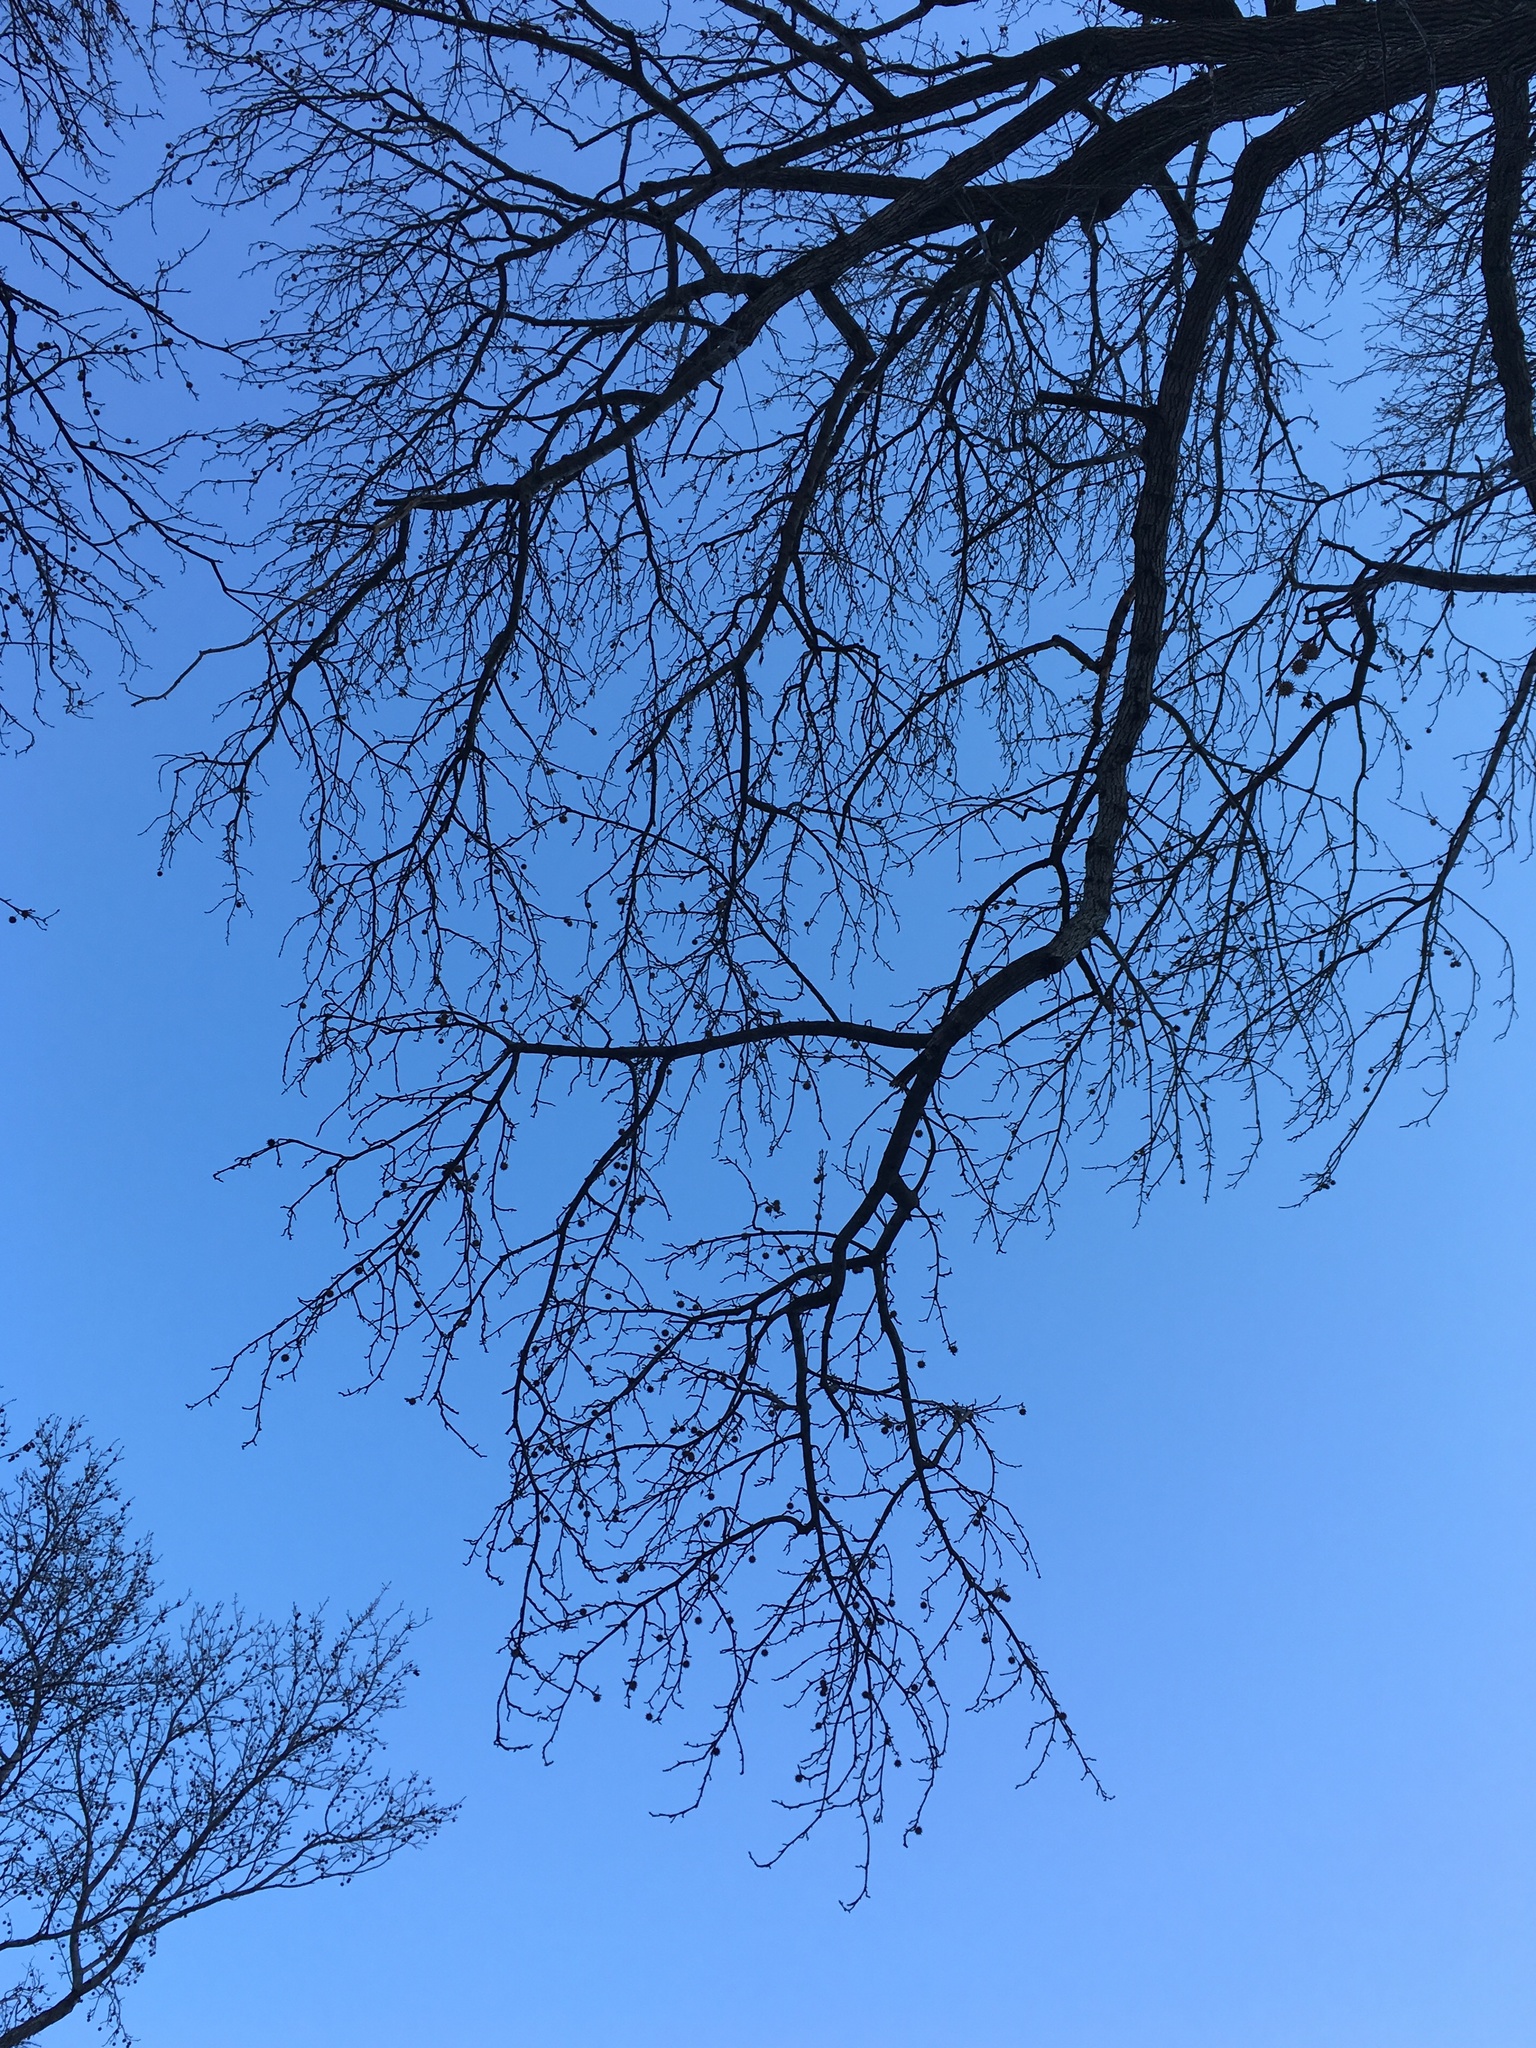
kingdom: Plantae
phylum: Tracheophyta
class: Magnoliopsida
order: Saxifragales
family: Altingiaceae
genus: Liquidambar
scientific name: Liquidambar styraciflua
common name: Sweet gum
